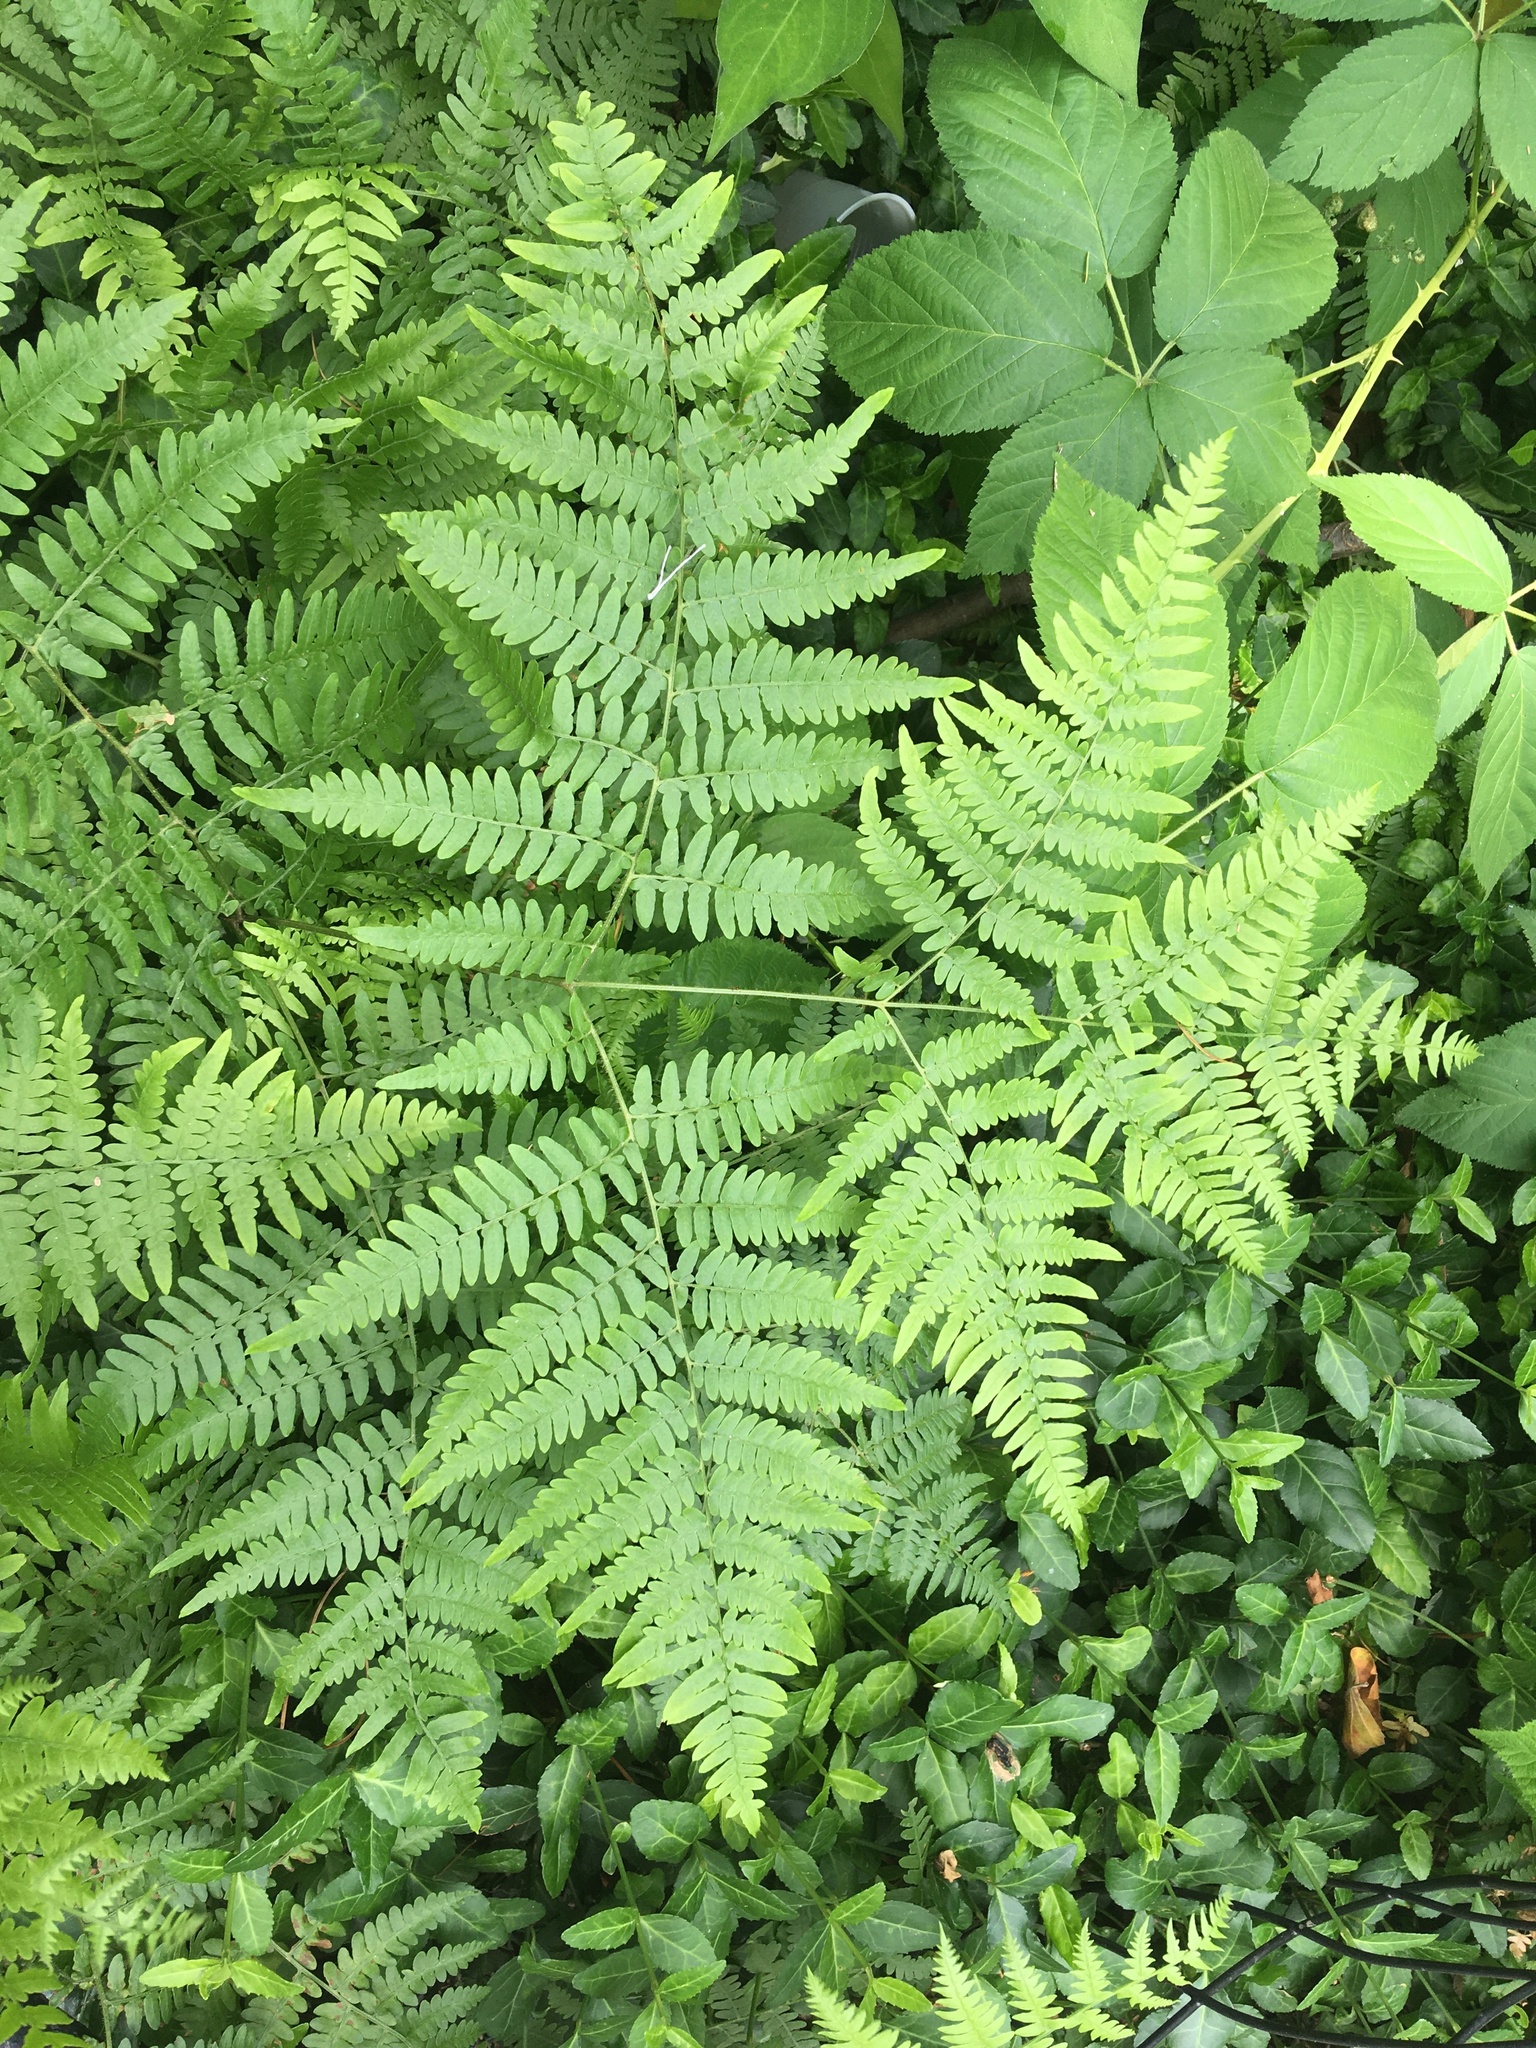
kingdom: Plantae
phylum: Tracheophyta
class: Polypodiopsida
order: Polypodiales
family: Dennstaedtiaceae
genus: Pteridium
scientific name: Pteridium aquilinum
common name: Bracken
